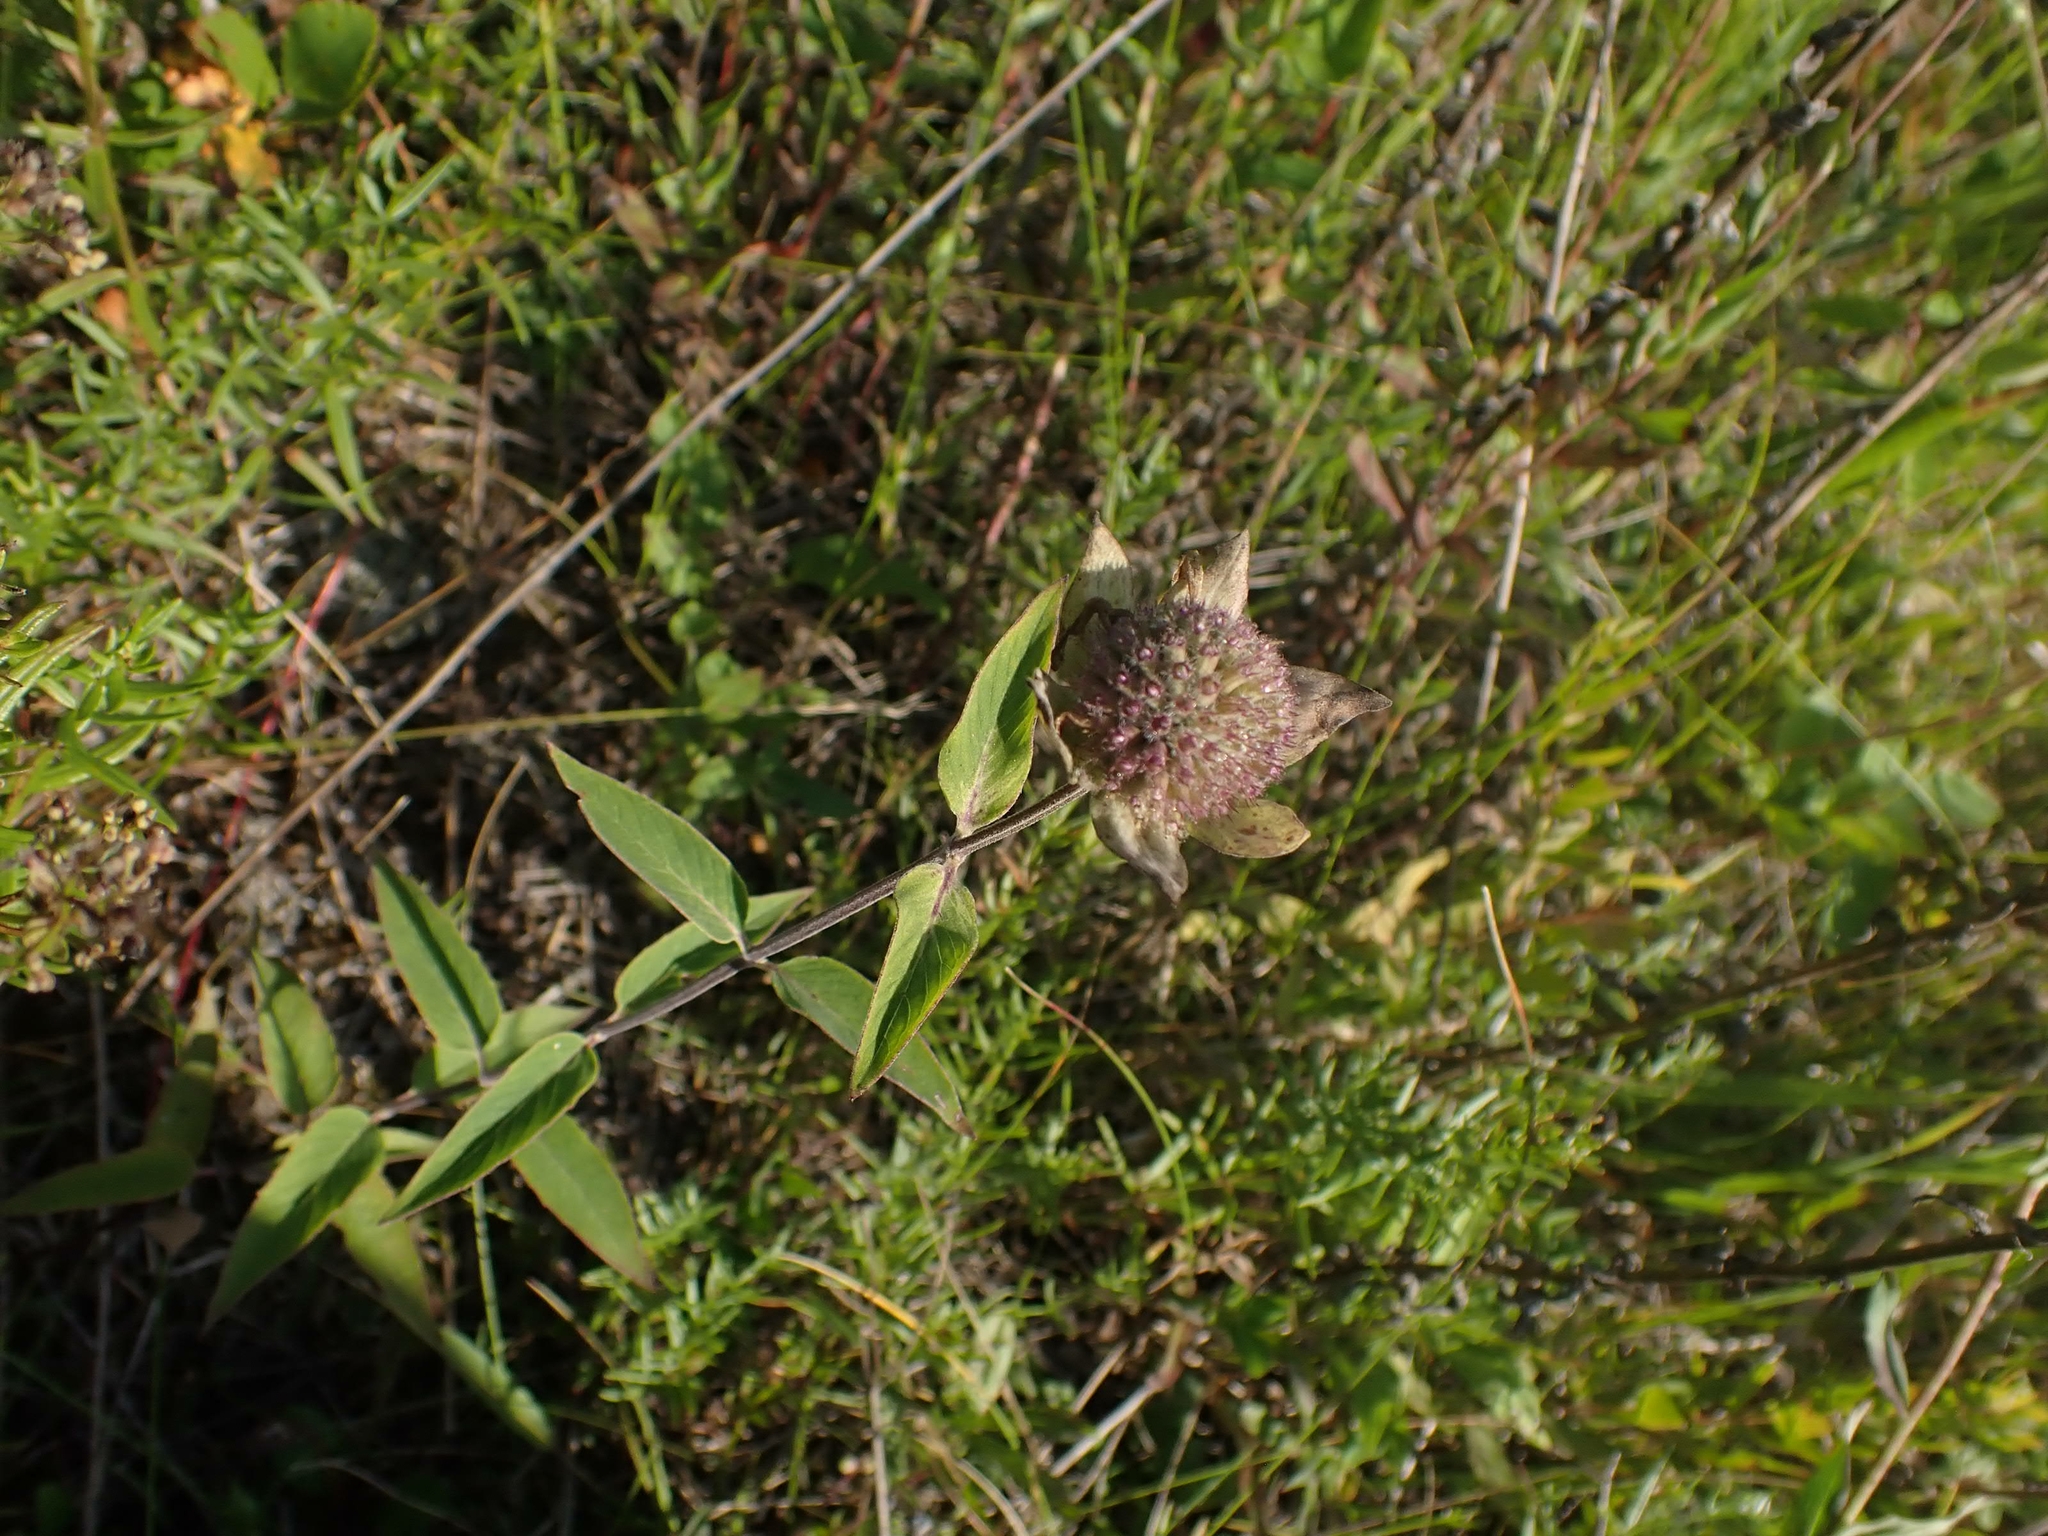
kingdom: Plantae
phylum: Tracheophyta
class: Magnoliopsida
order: Lamiales
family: Lamiaceae
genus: Monarda
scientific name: Monarda fistulosa
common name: Purple beebalm
